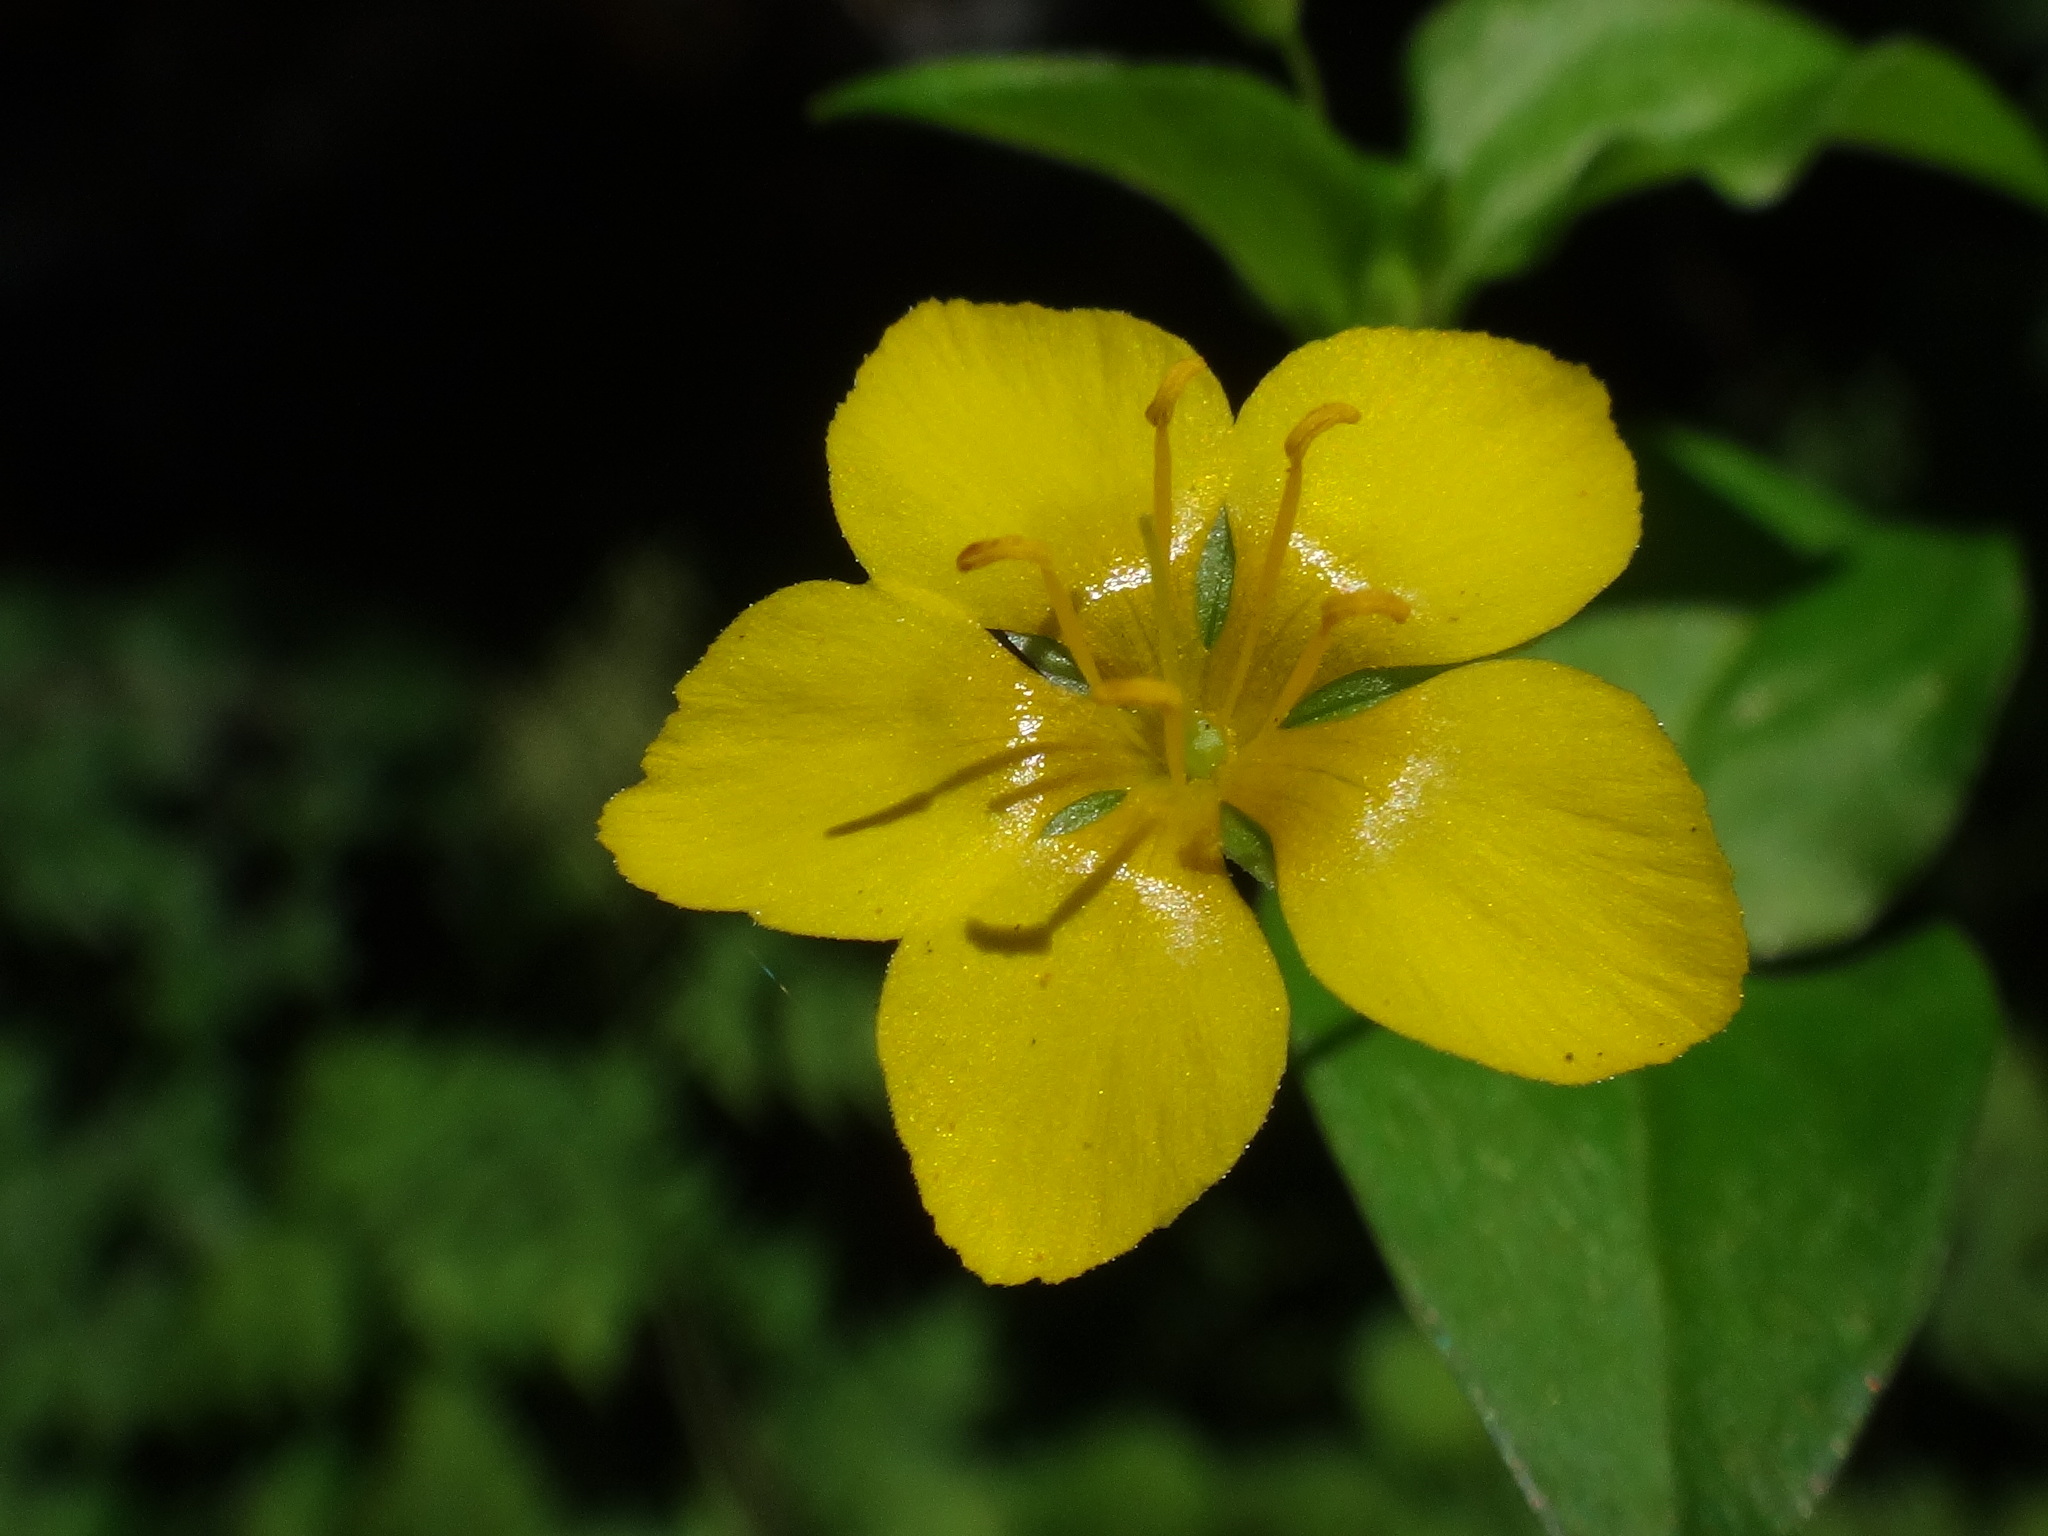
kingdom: Plantae
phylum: Tracheophyta
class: Magnoliopsida
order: Ericales
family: Primulaceae
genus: Lysimachia
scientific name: Lysimachia nemorum
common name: Yellow pimpernel
